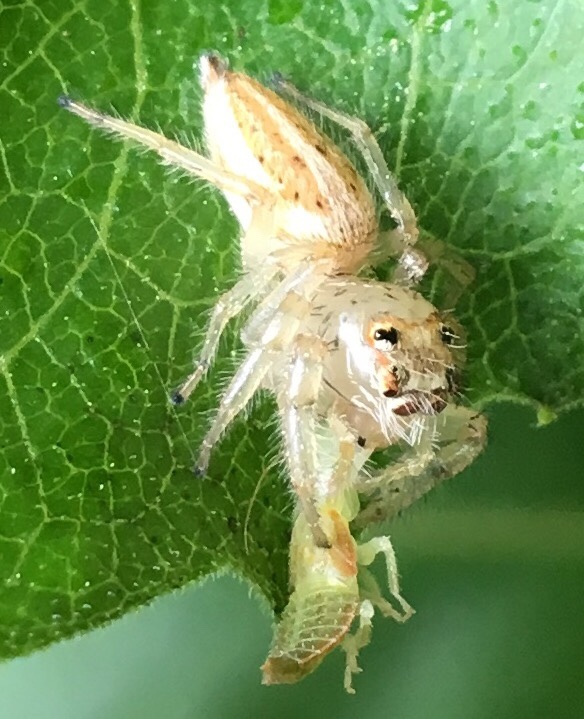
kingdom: Animalia
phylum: Arthropoda
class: Arachnida
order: Araneae
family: Salticidae
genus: Colonus
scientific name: Colonus sylvanus
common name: Jumping spiders
